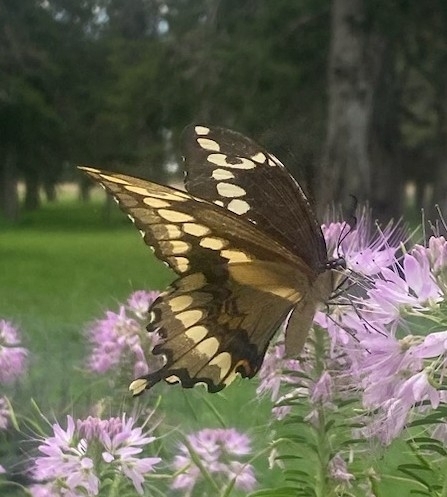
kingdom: Animalia
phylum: Arthropoda
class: Insecta
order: Lepidoptera
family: Papilionidae
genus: Papilio
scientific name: Papilio cresphontes
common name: Giant swallowtail
